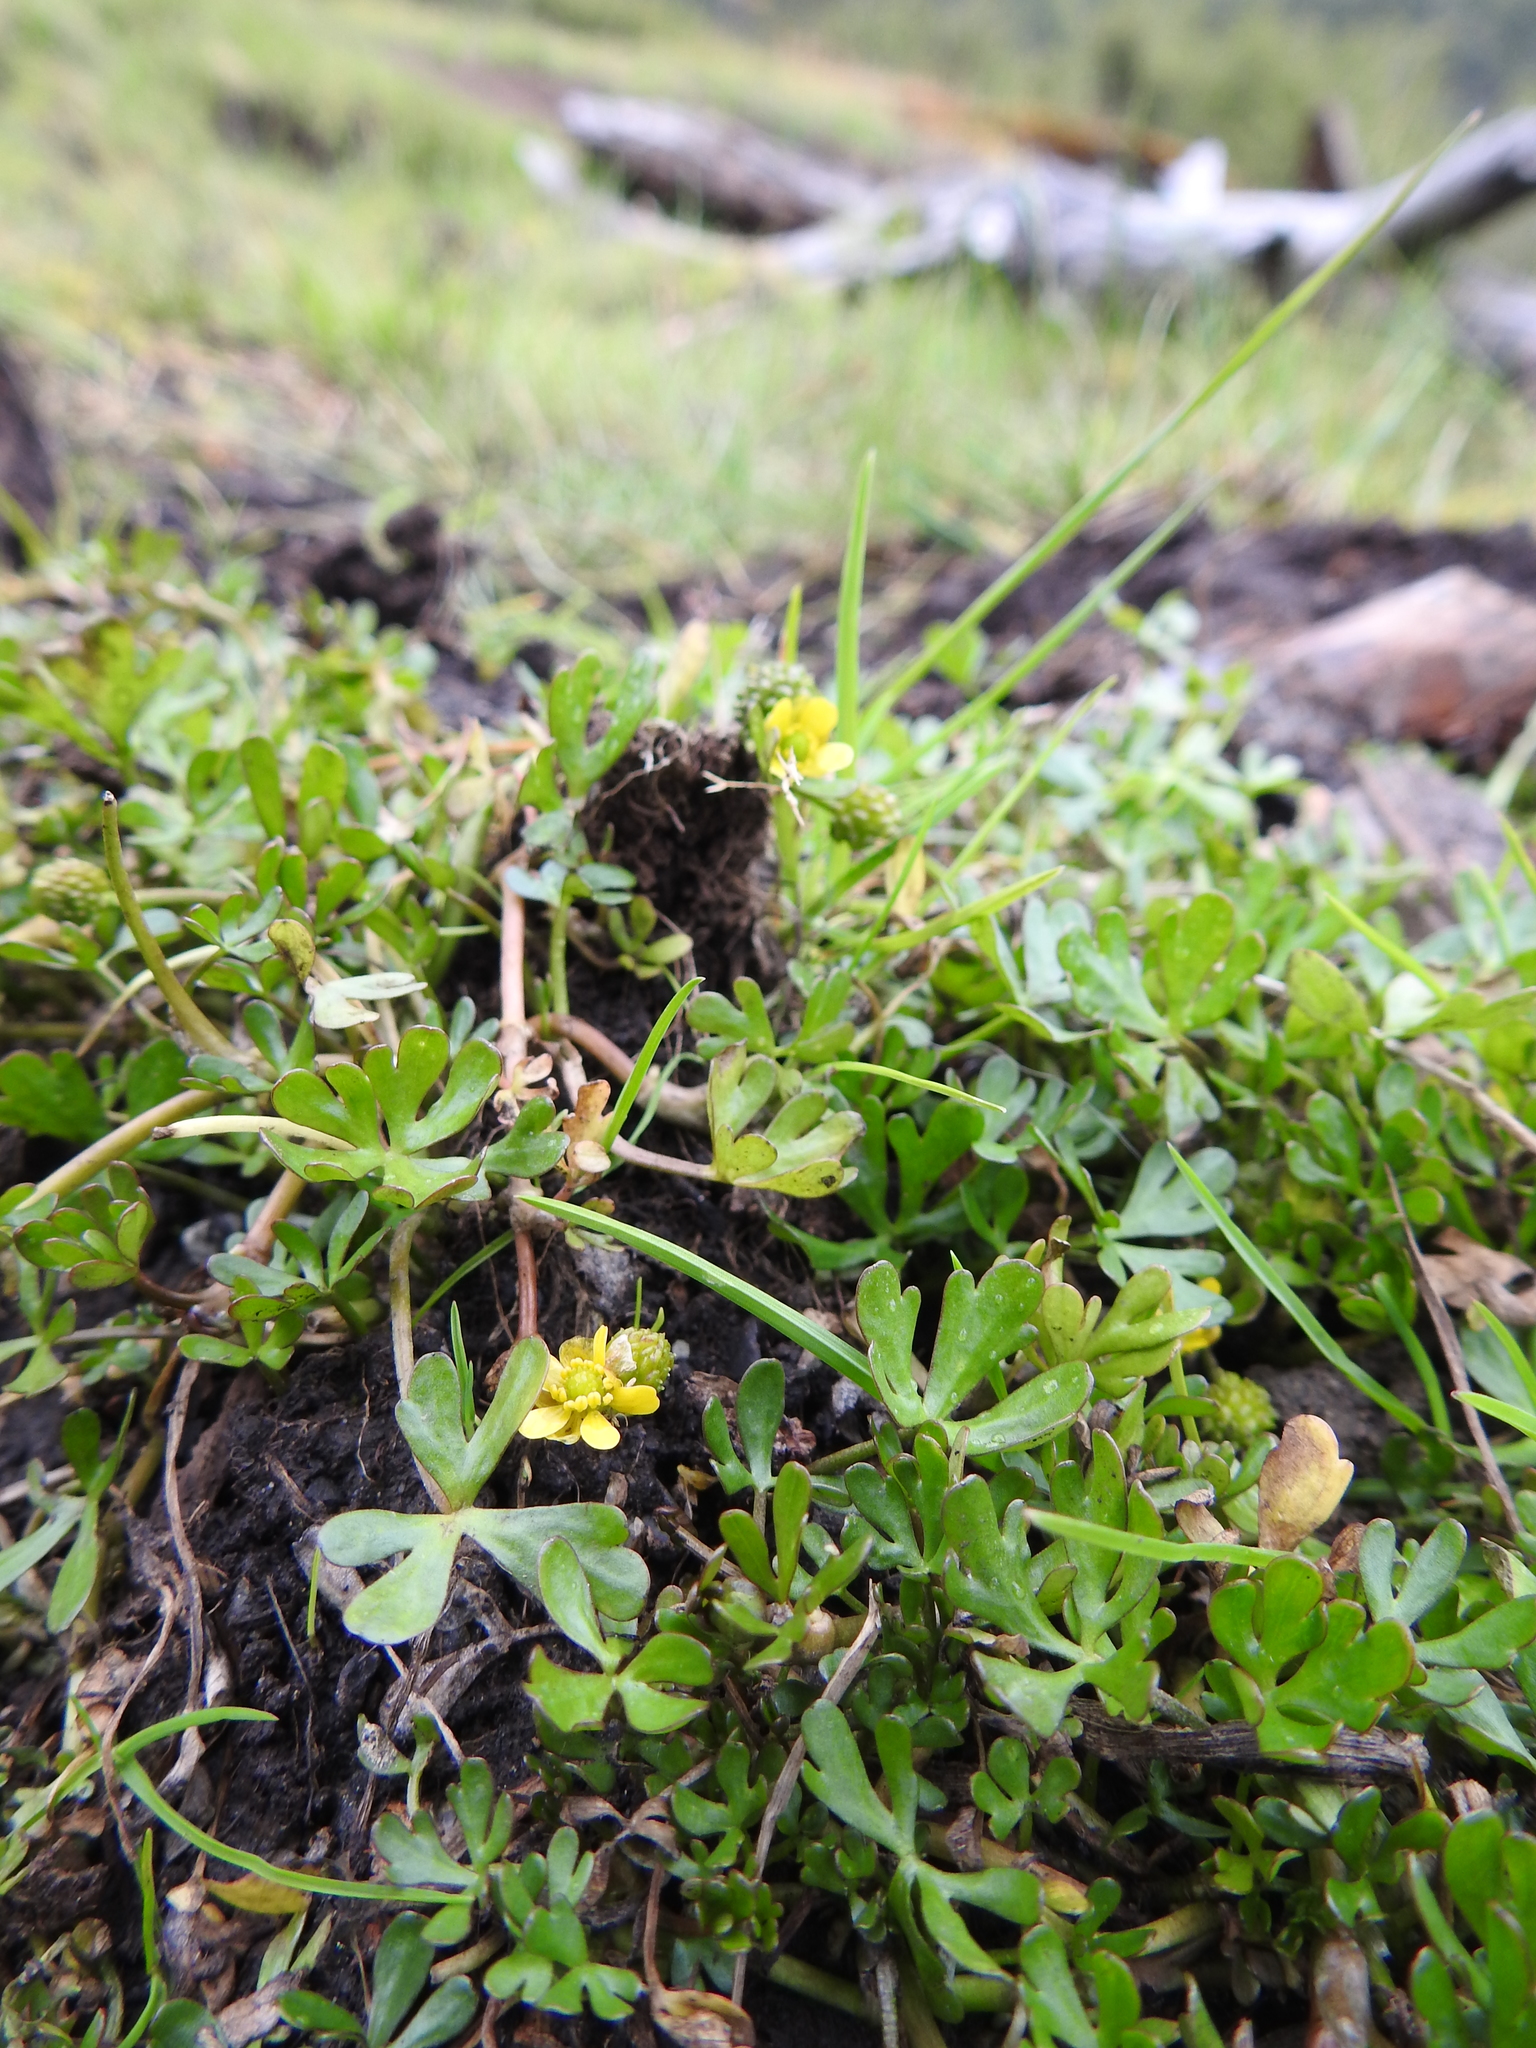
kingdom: Plantae
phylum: Tracheophyta
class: Magnoliopsida
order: Ranunculales
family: Ranunculaceae
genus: Ranunculus
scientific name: Ranunculus fuegianus
